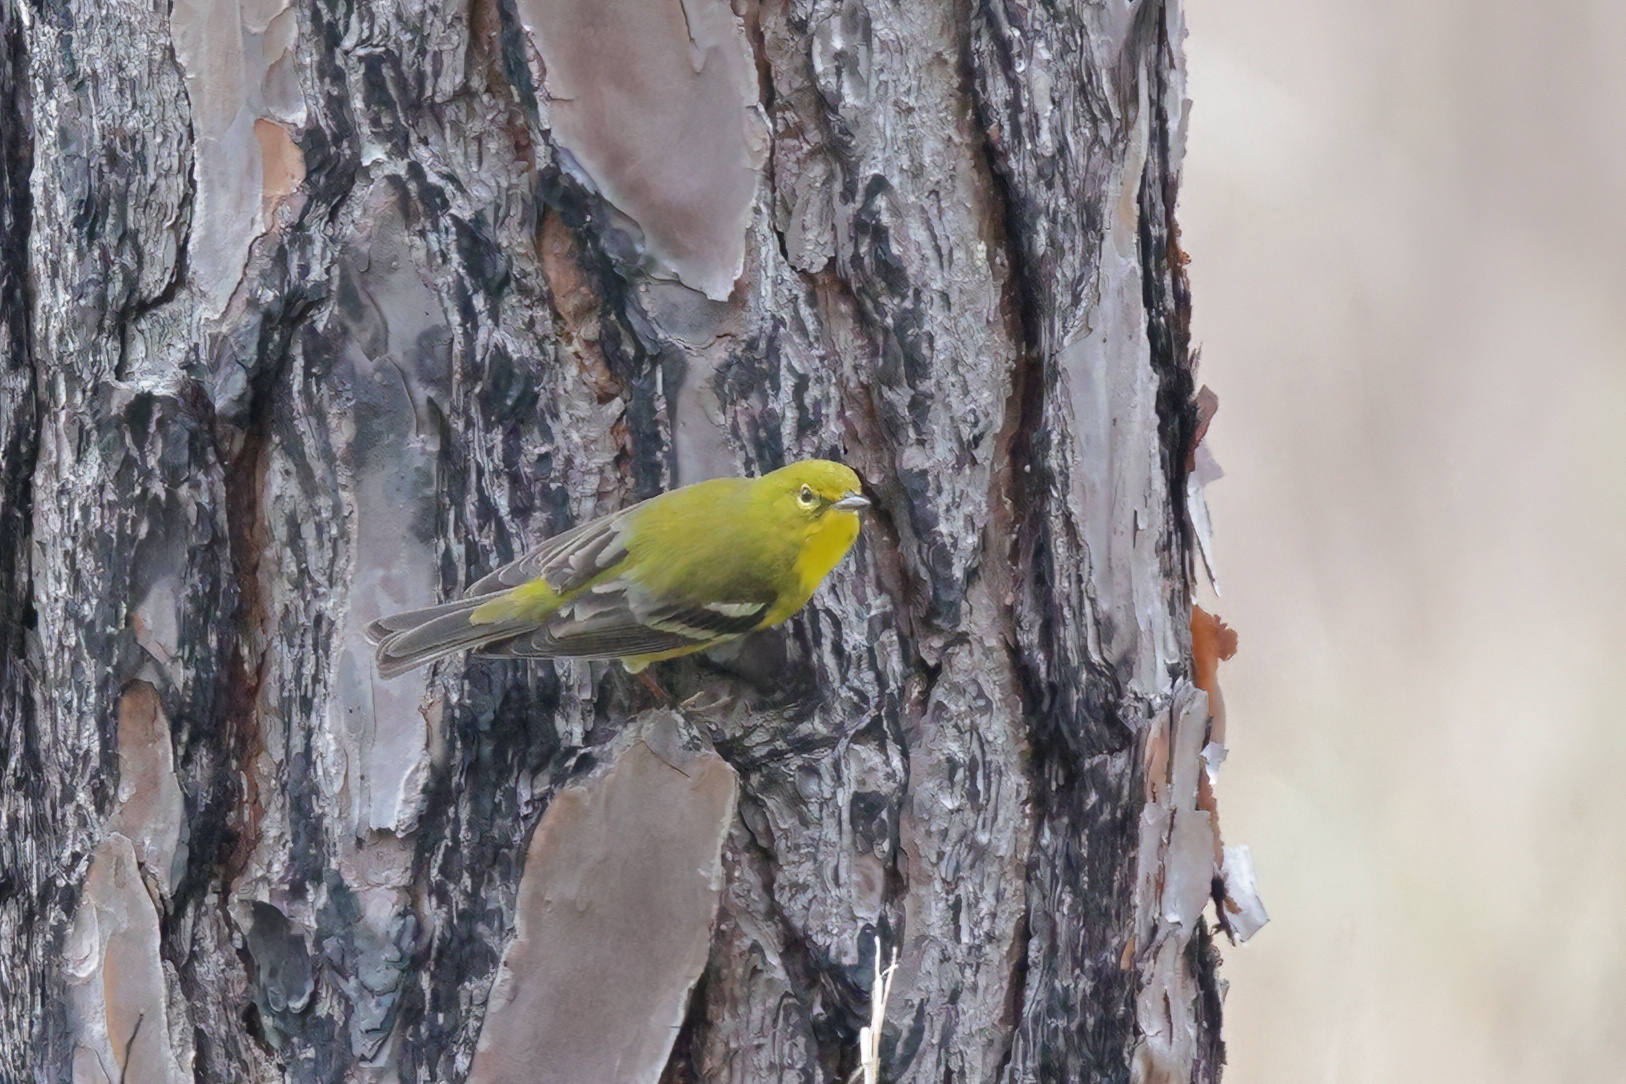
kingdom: Animalia
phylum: Chordata
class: Aves
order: Passeriformes
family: Parulidae
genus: Setophaga
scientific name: Setophaga pinus
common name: Pine warbler
